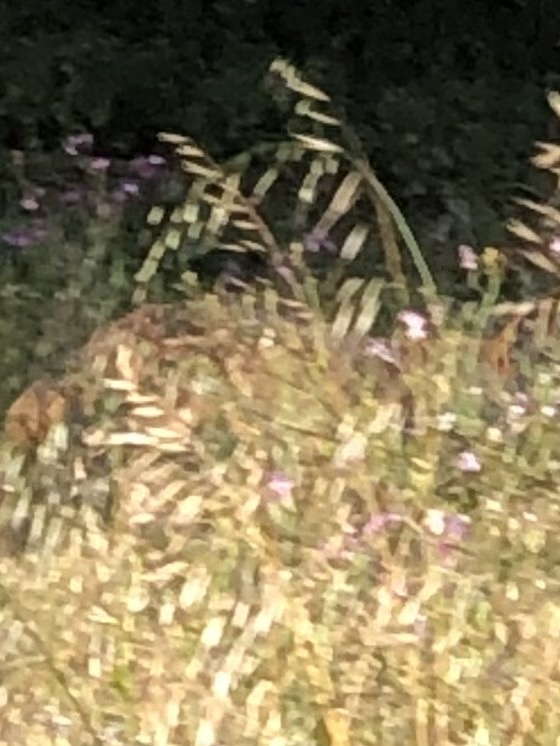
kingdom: Animalia
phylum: Chordata
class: Mammalia
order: Carnivora
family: Canidae
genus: Canis
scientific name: Canis latrans
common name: Coyote
